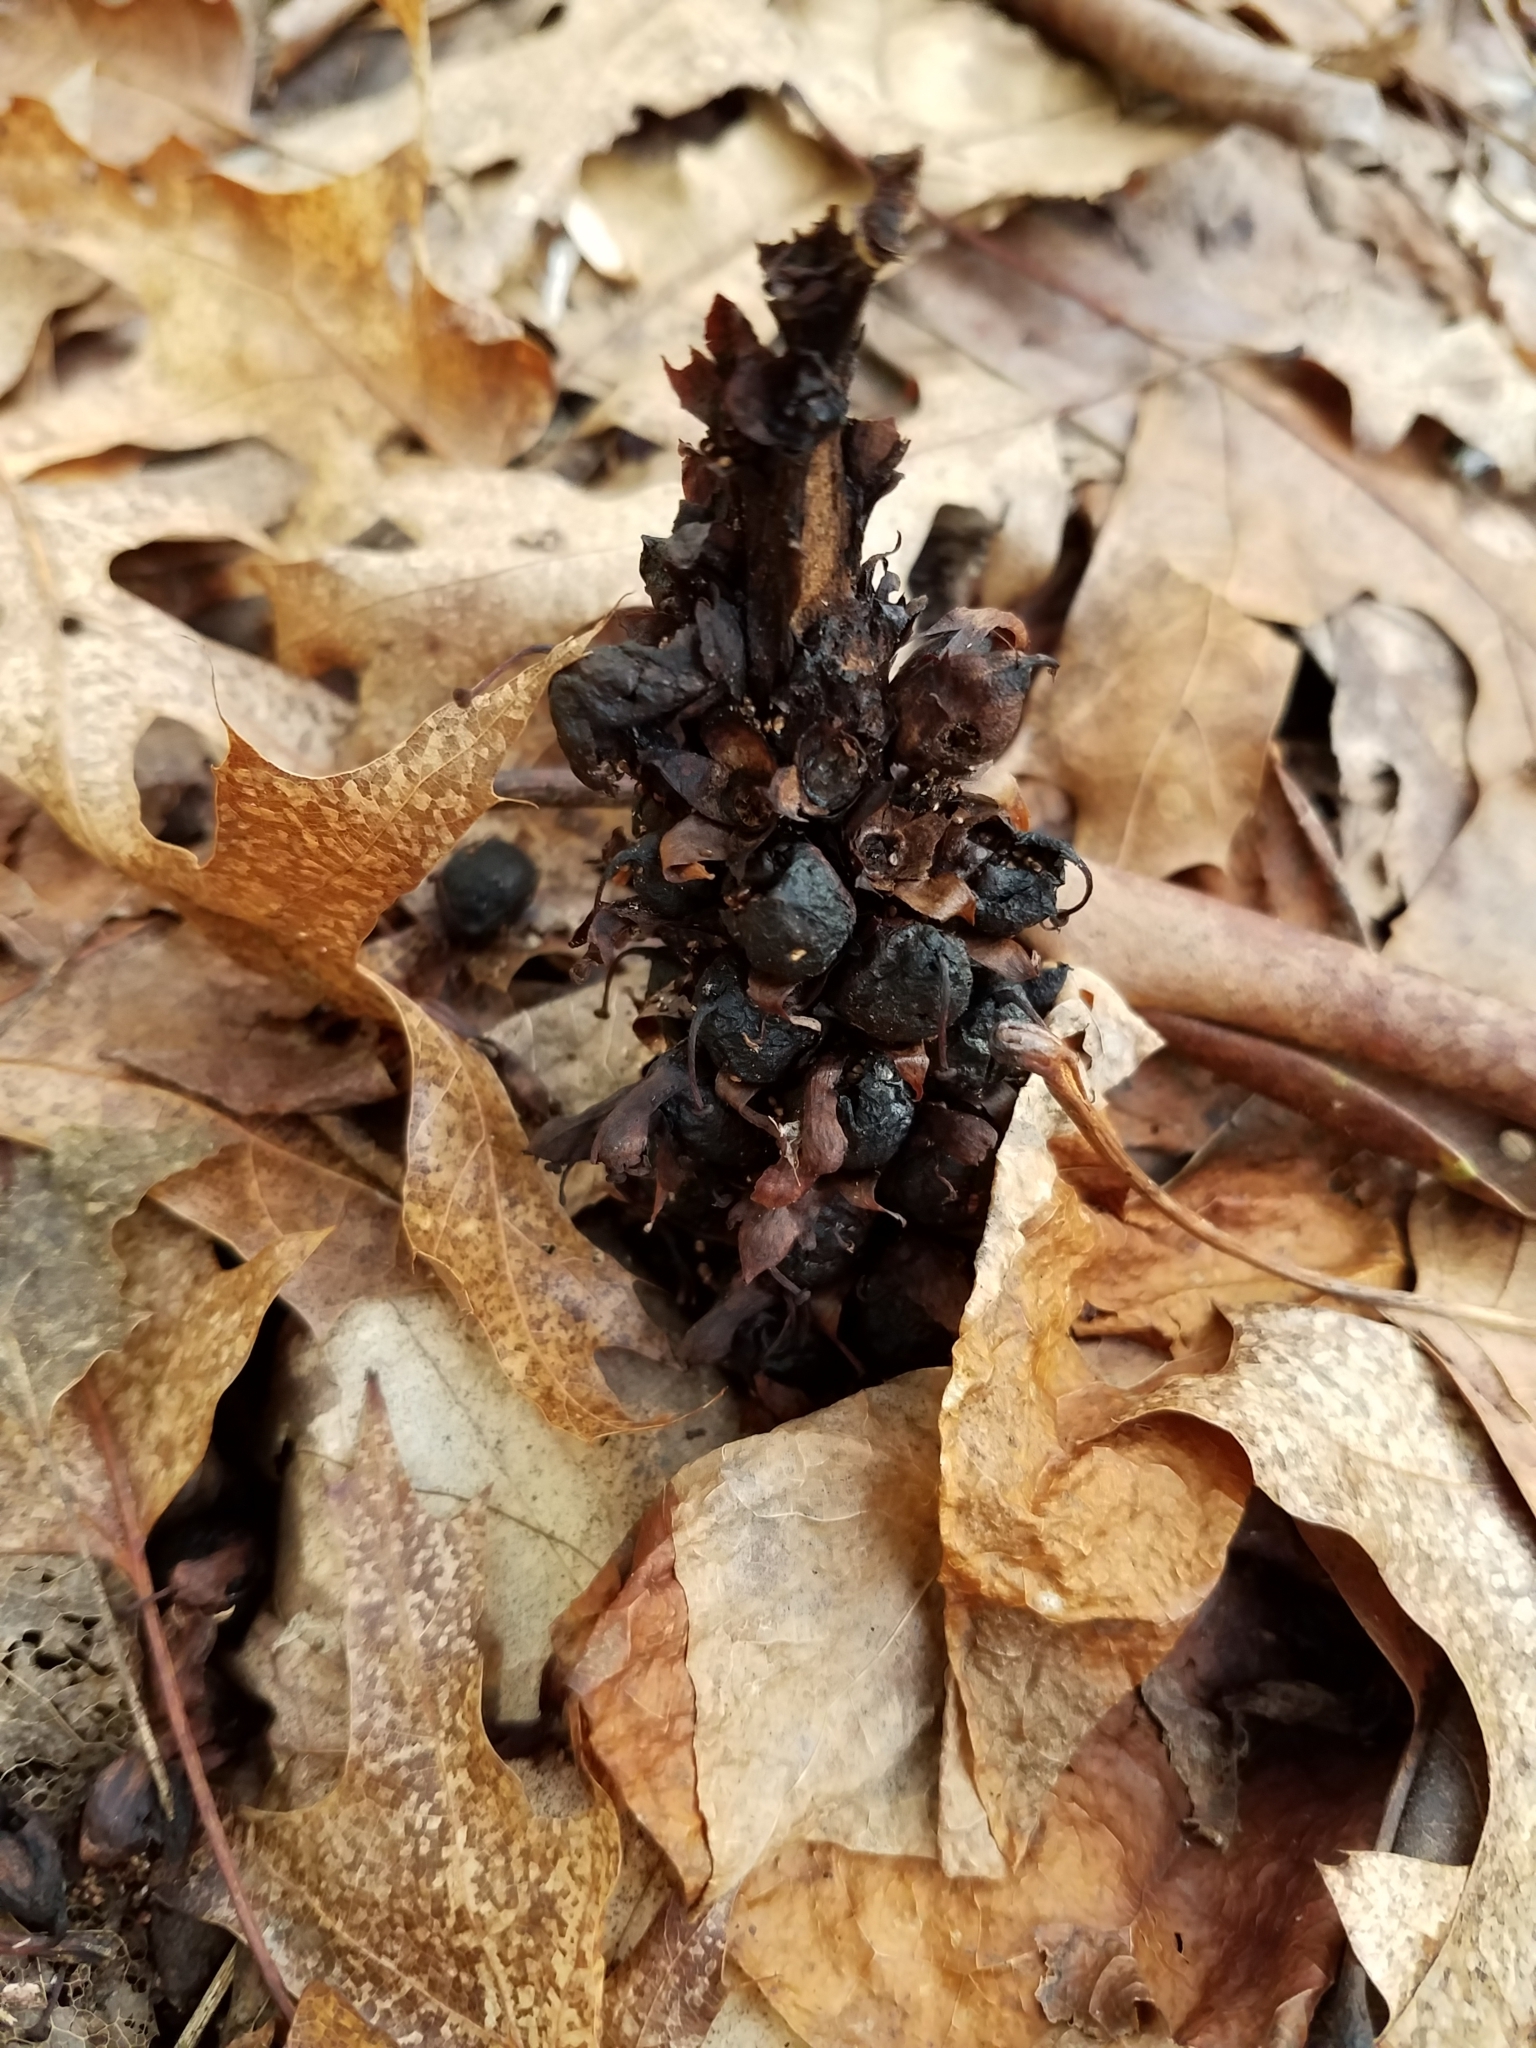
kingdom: Plantae
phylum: Tracheophyta
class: Magnoliopsida
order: Lamiales
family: Orobanchaceae
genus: Conopholis
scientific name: Conopholis americana
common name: American cancer-root
